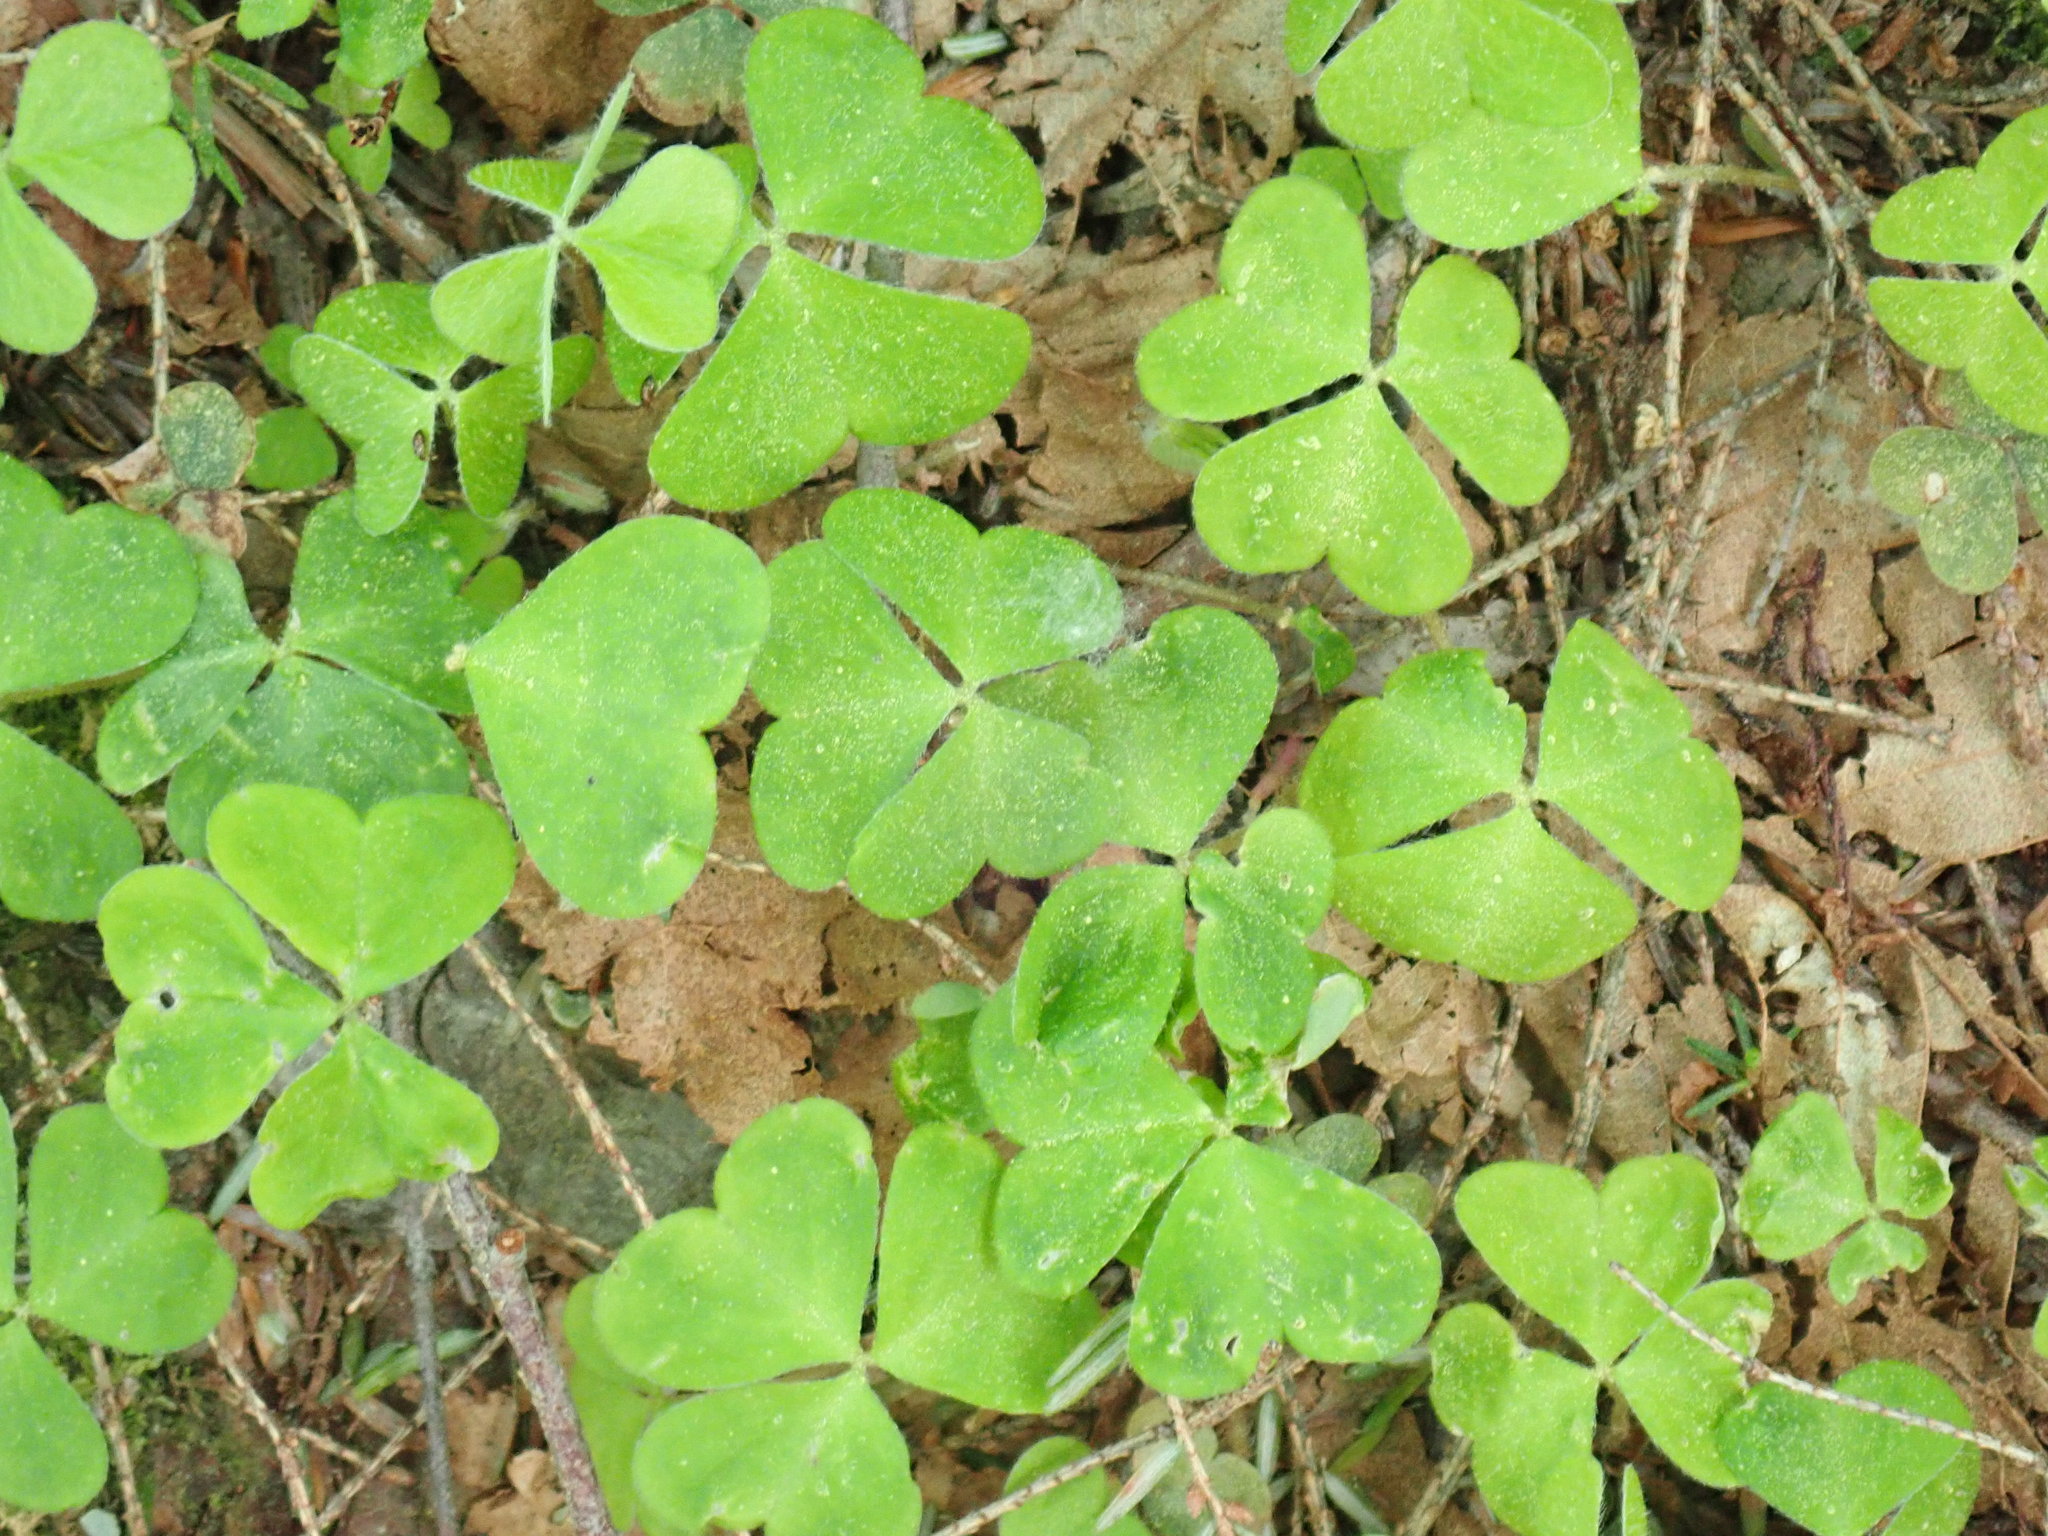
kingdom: Plantae
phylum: Tracheophyta
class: Magnoliopsida
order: Oxalidales
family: Oxalidaceae
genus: Oxalis
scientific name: Oxalis montana
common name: American wood-sorrel
